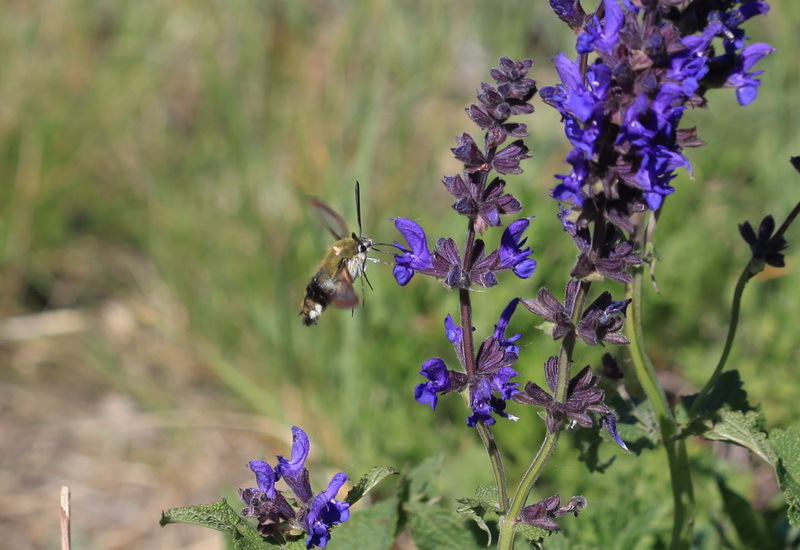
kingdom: Animalia
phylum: Arthropoda
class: Insecta
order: Lepidoptera
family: Sphingidae
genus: Hemaris
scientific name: Hemaris fuciformis
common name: Broad-bordered bee hawk-moth
